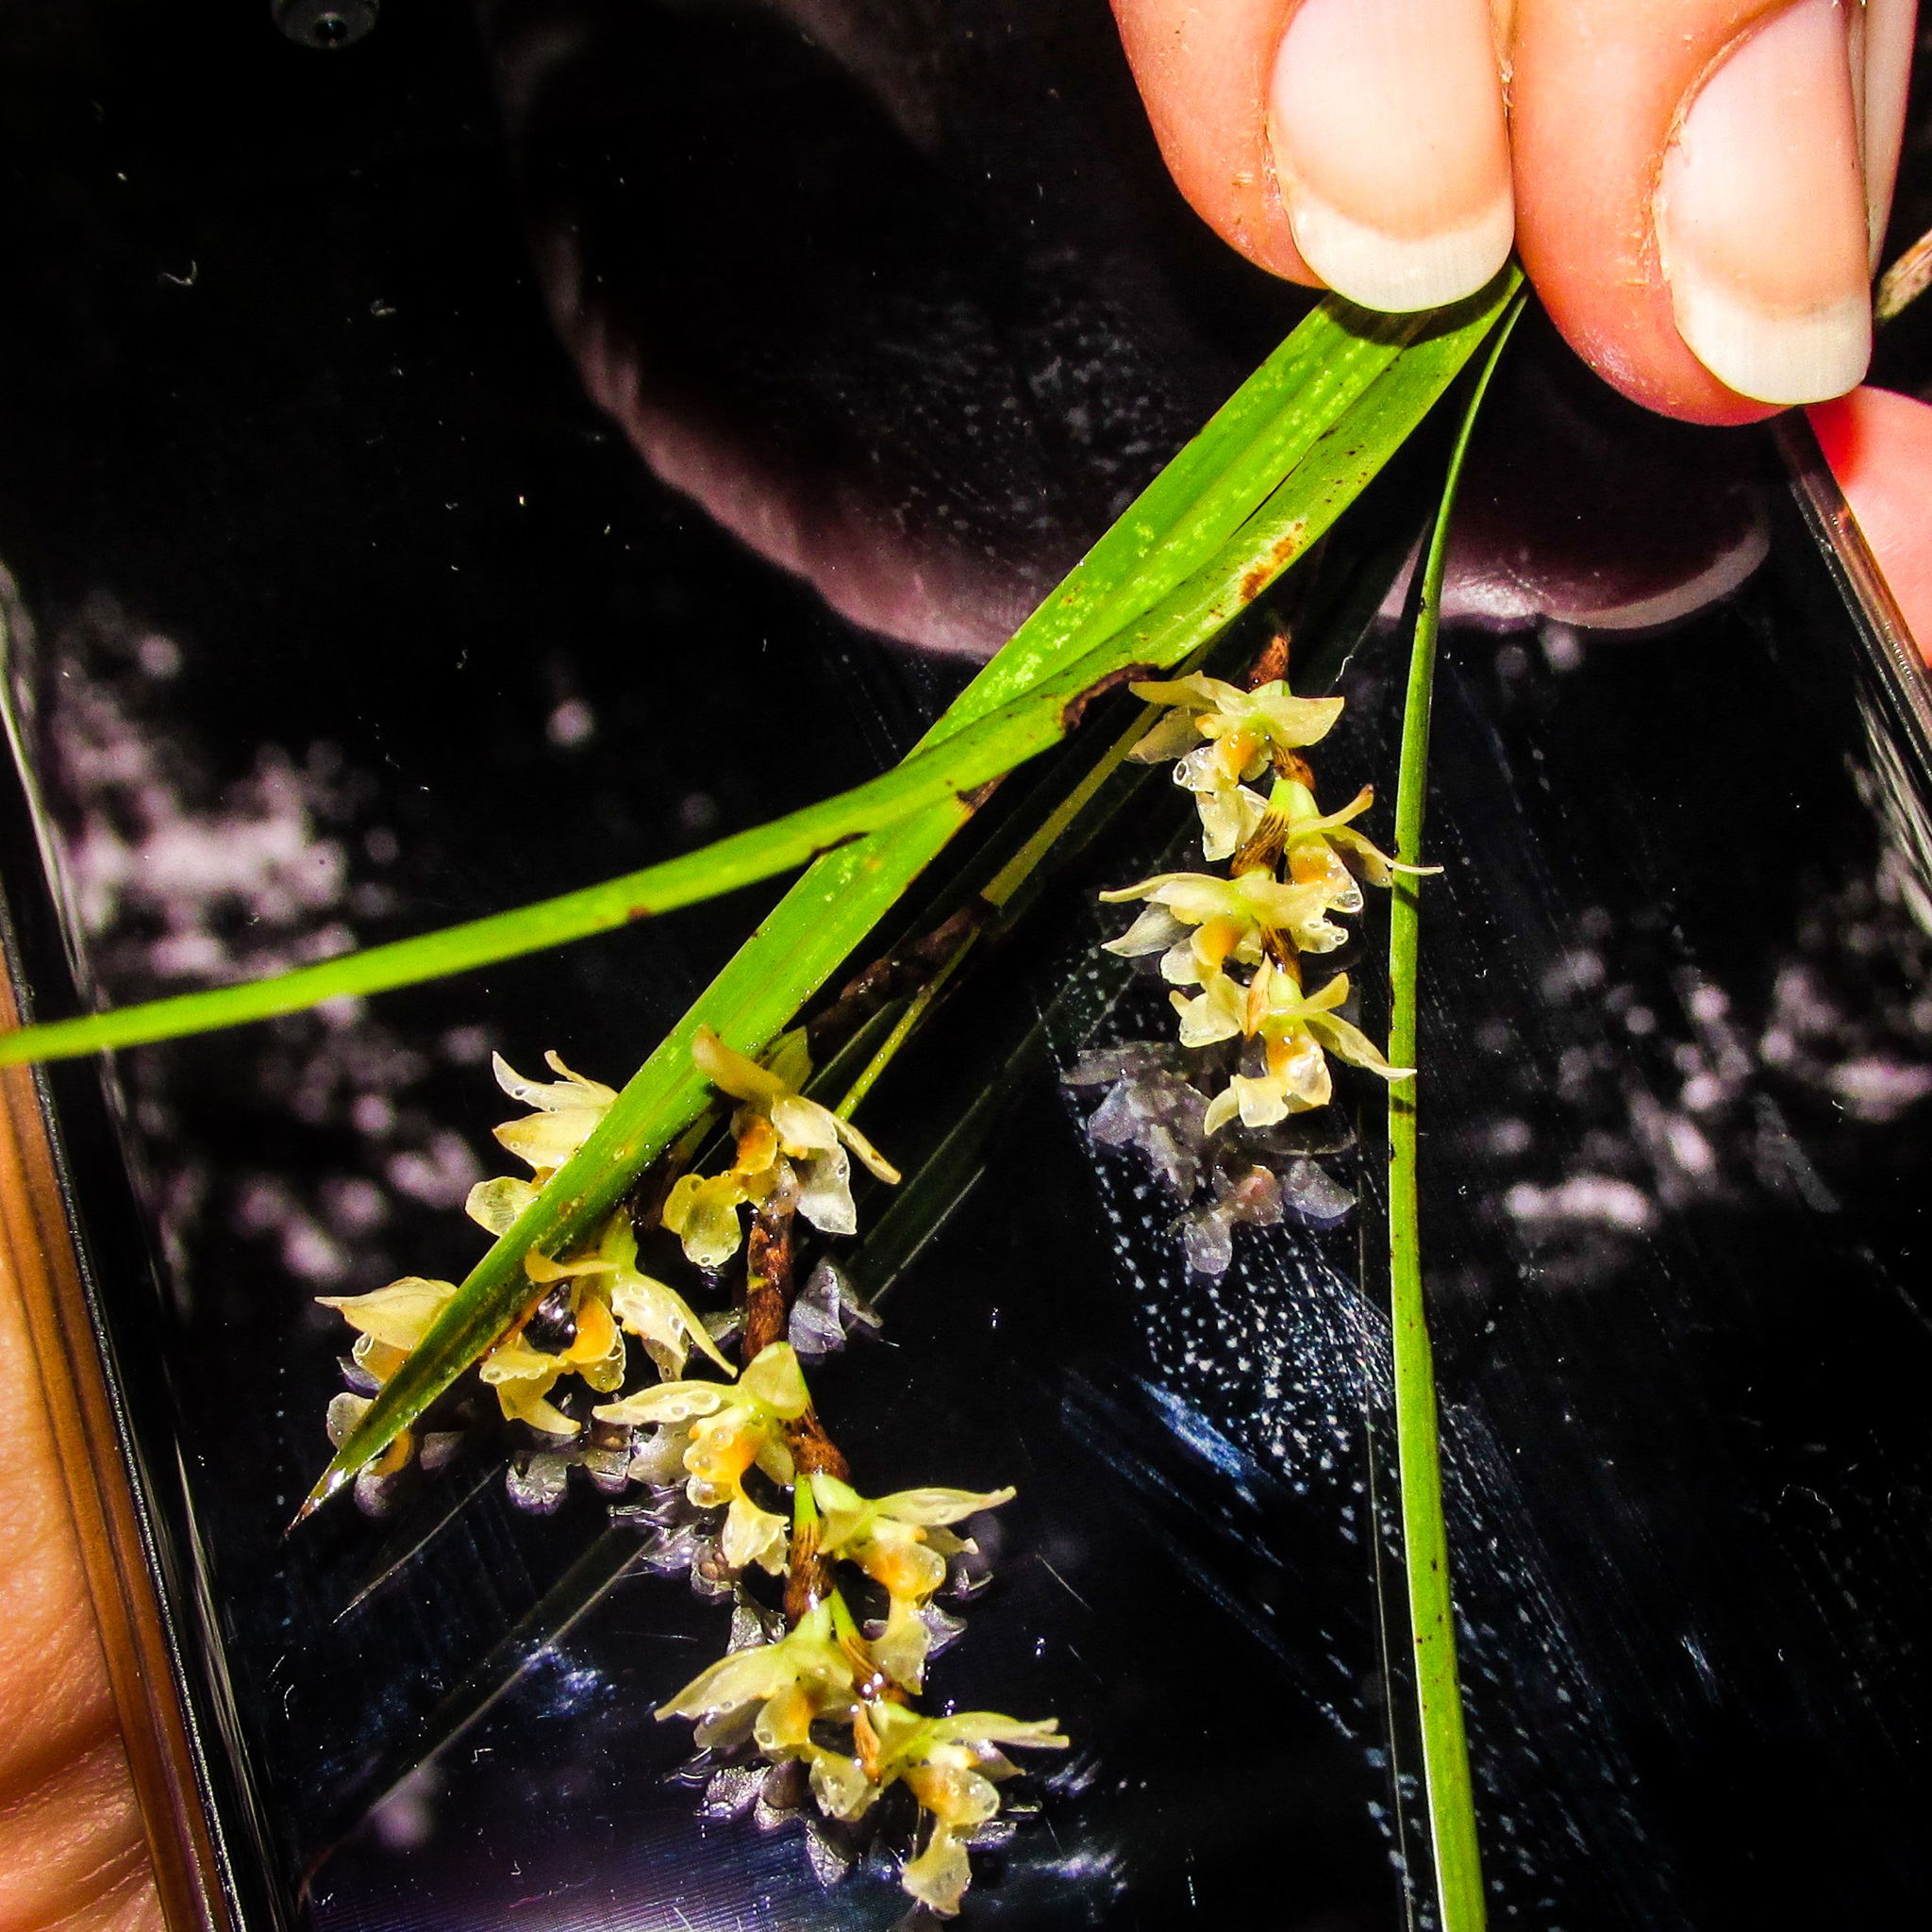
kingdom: Plantae
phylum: Tracheophyta
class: Liliopsida
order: Asparagales
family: Orchidaceae
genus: Earina
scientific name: Earina mucronata
